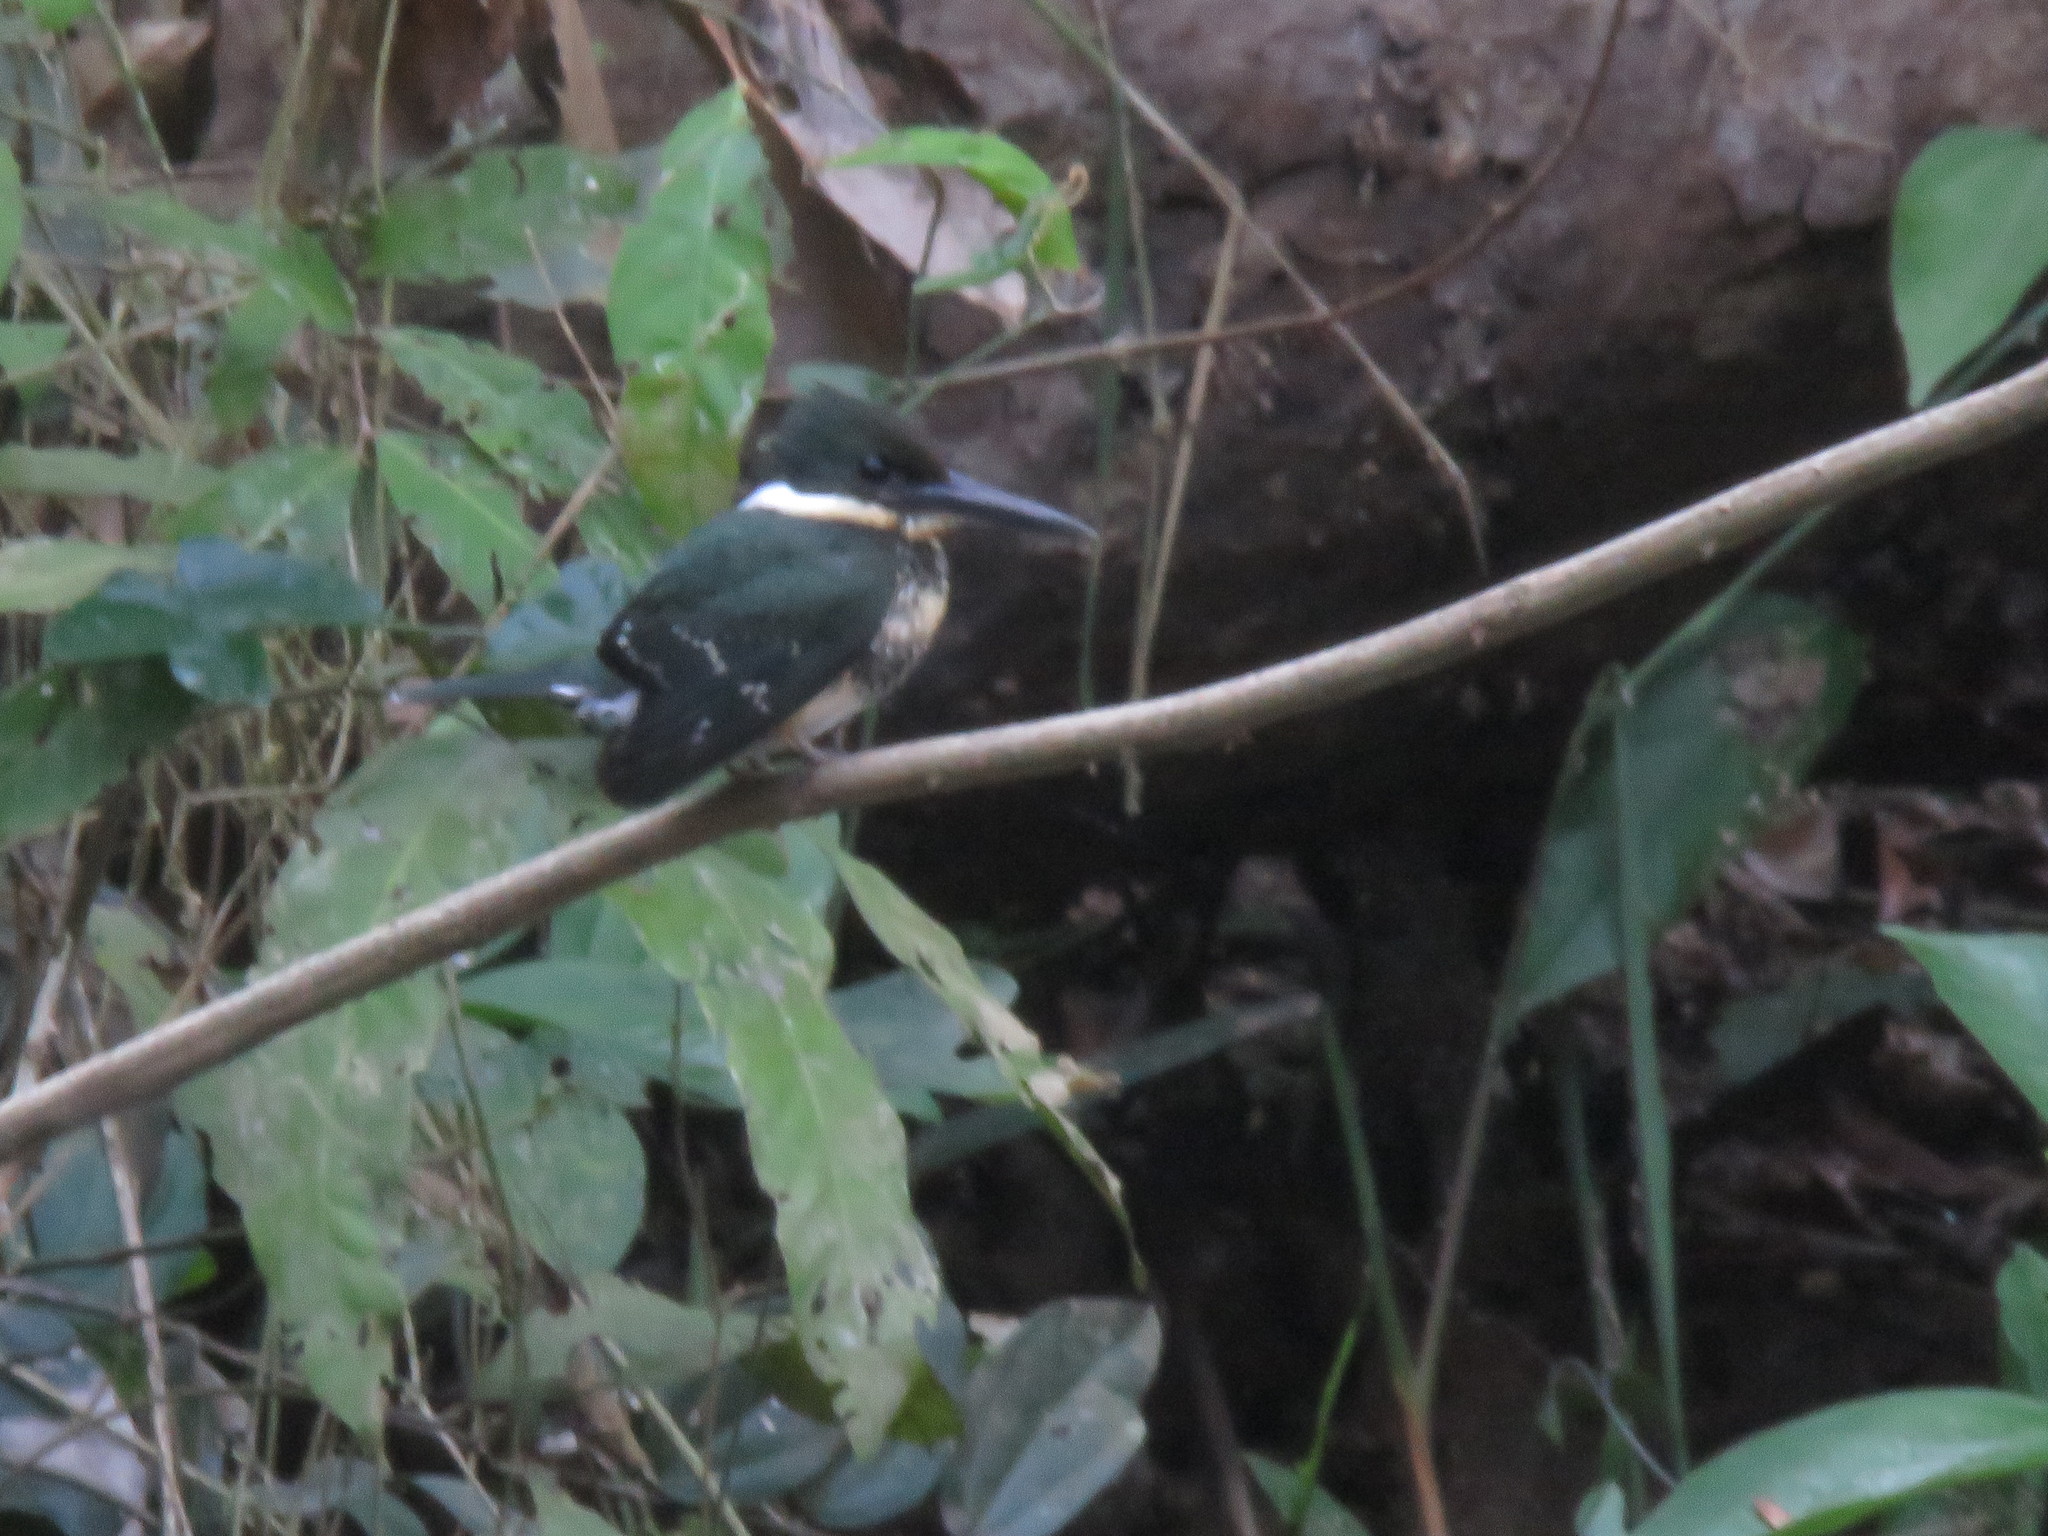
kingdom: Animalia
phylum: Chordata
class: Aves
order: Coraciiformes
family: Alcedinidae
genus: Chloroceryle
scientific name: Chloroceryle amazona
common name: Amazon kingfisher
